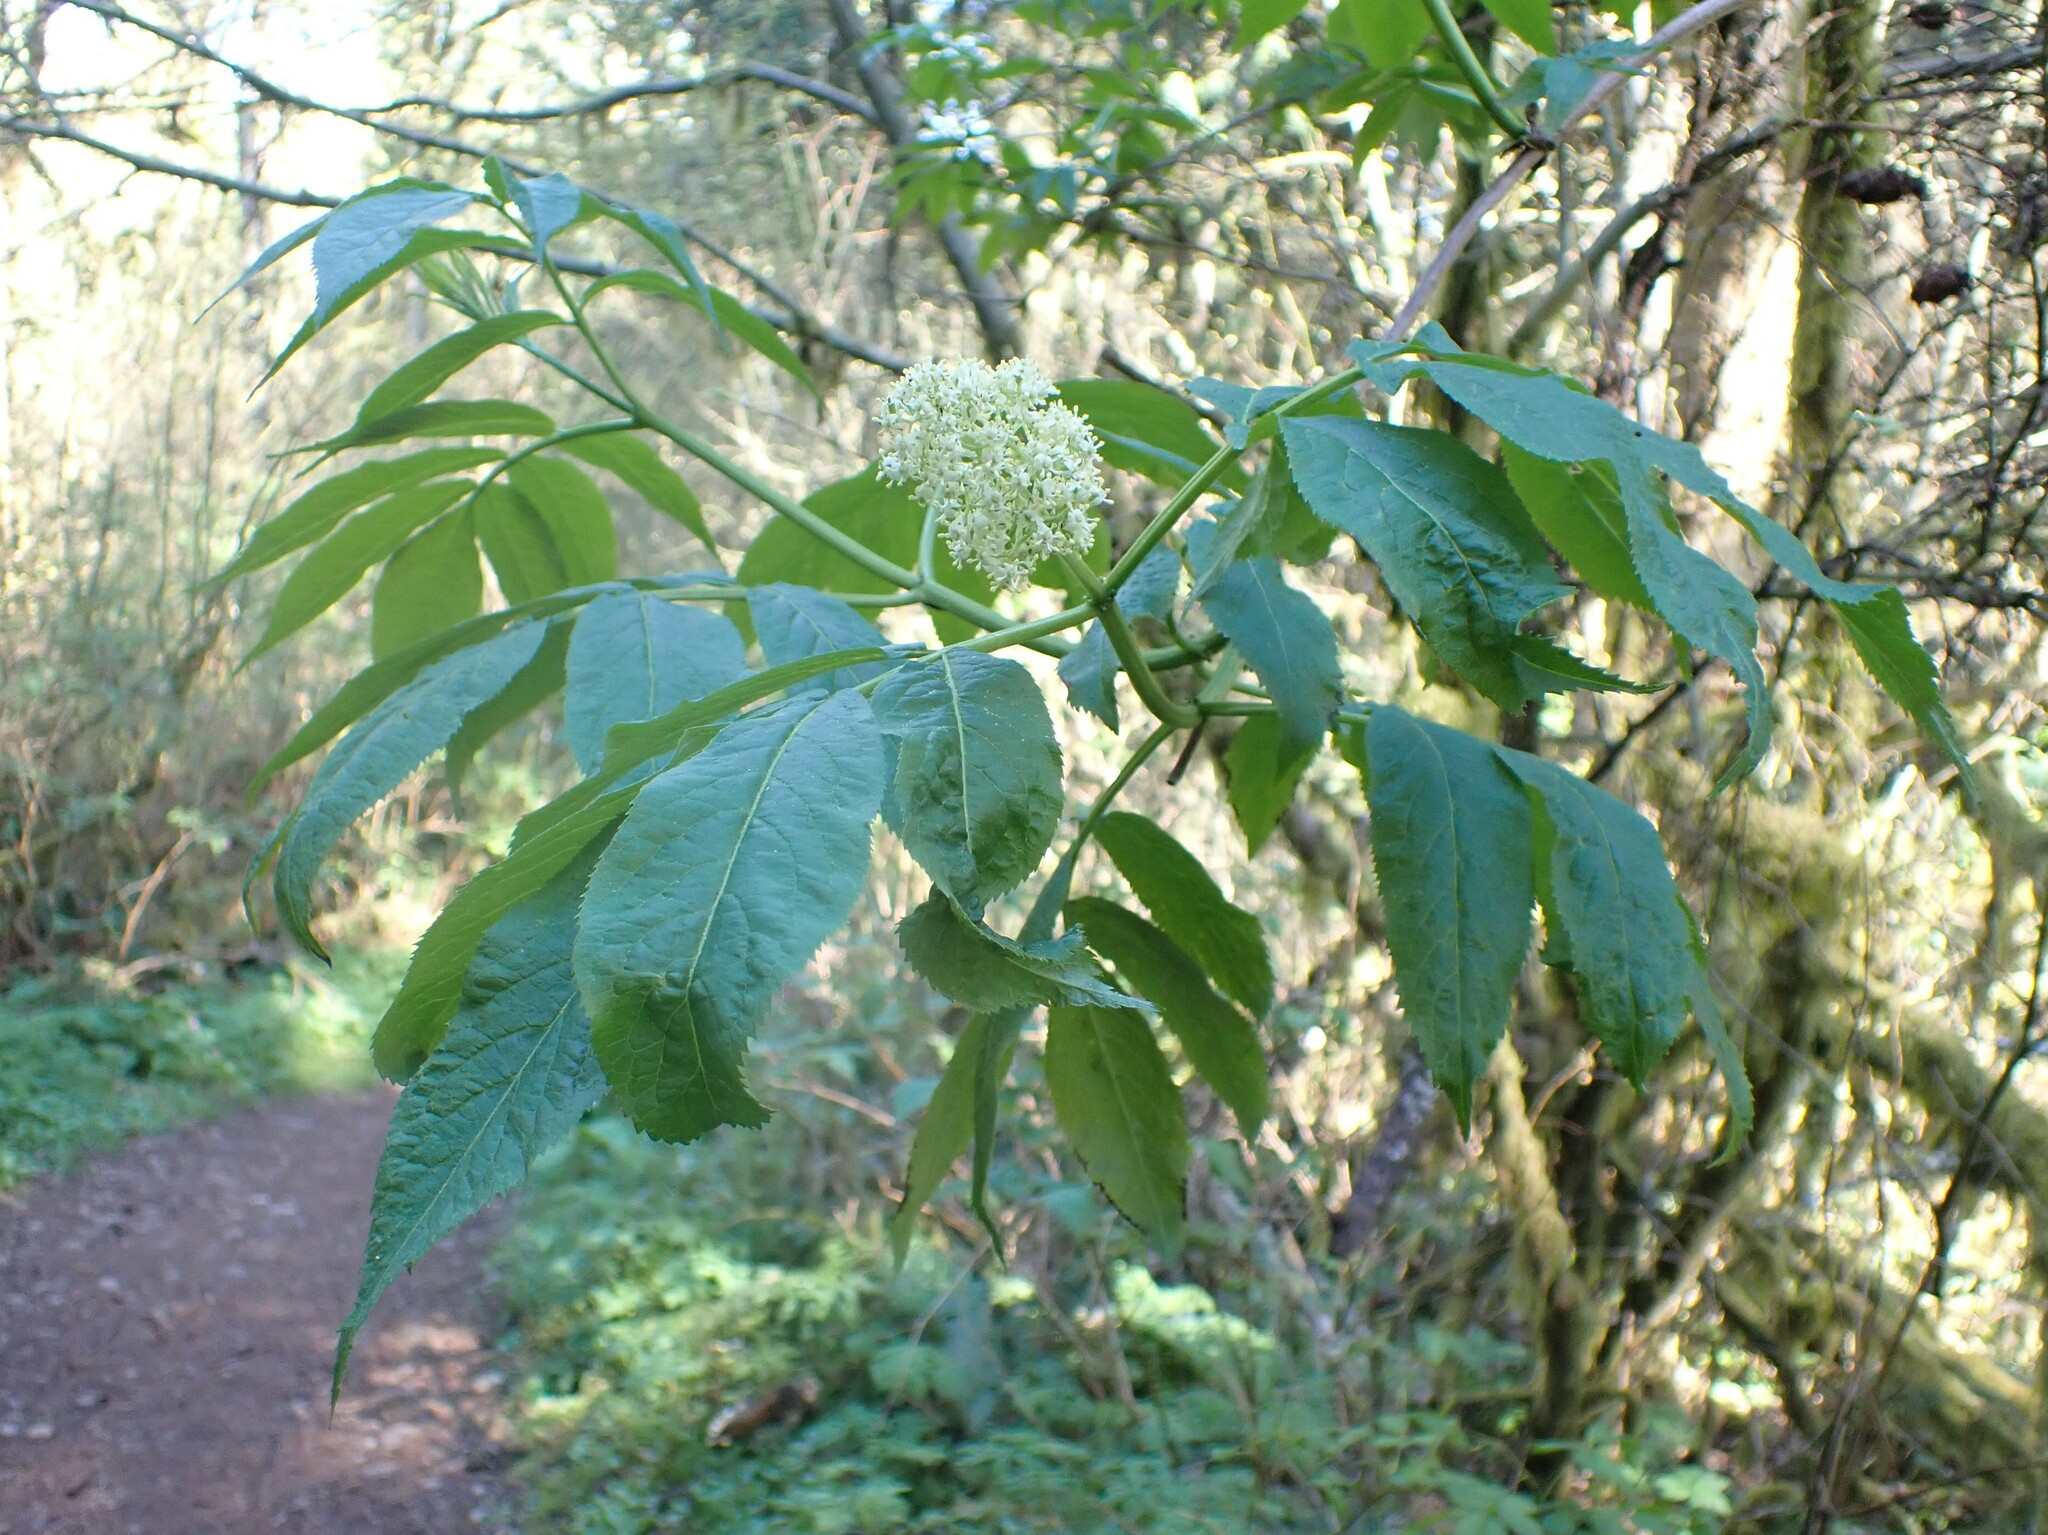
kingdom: Plantae
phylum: Tracheophyta
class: Magnoliopsida
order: Dipsacales
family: Viburnaceae
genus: Sambucus
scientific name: Sambucus racemosa
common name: Red-berried elder
